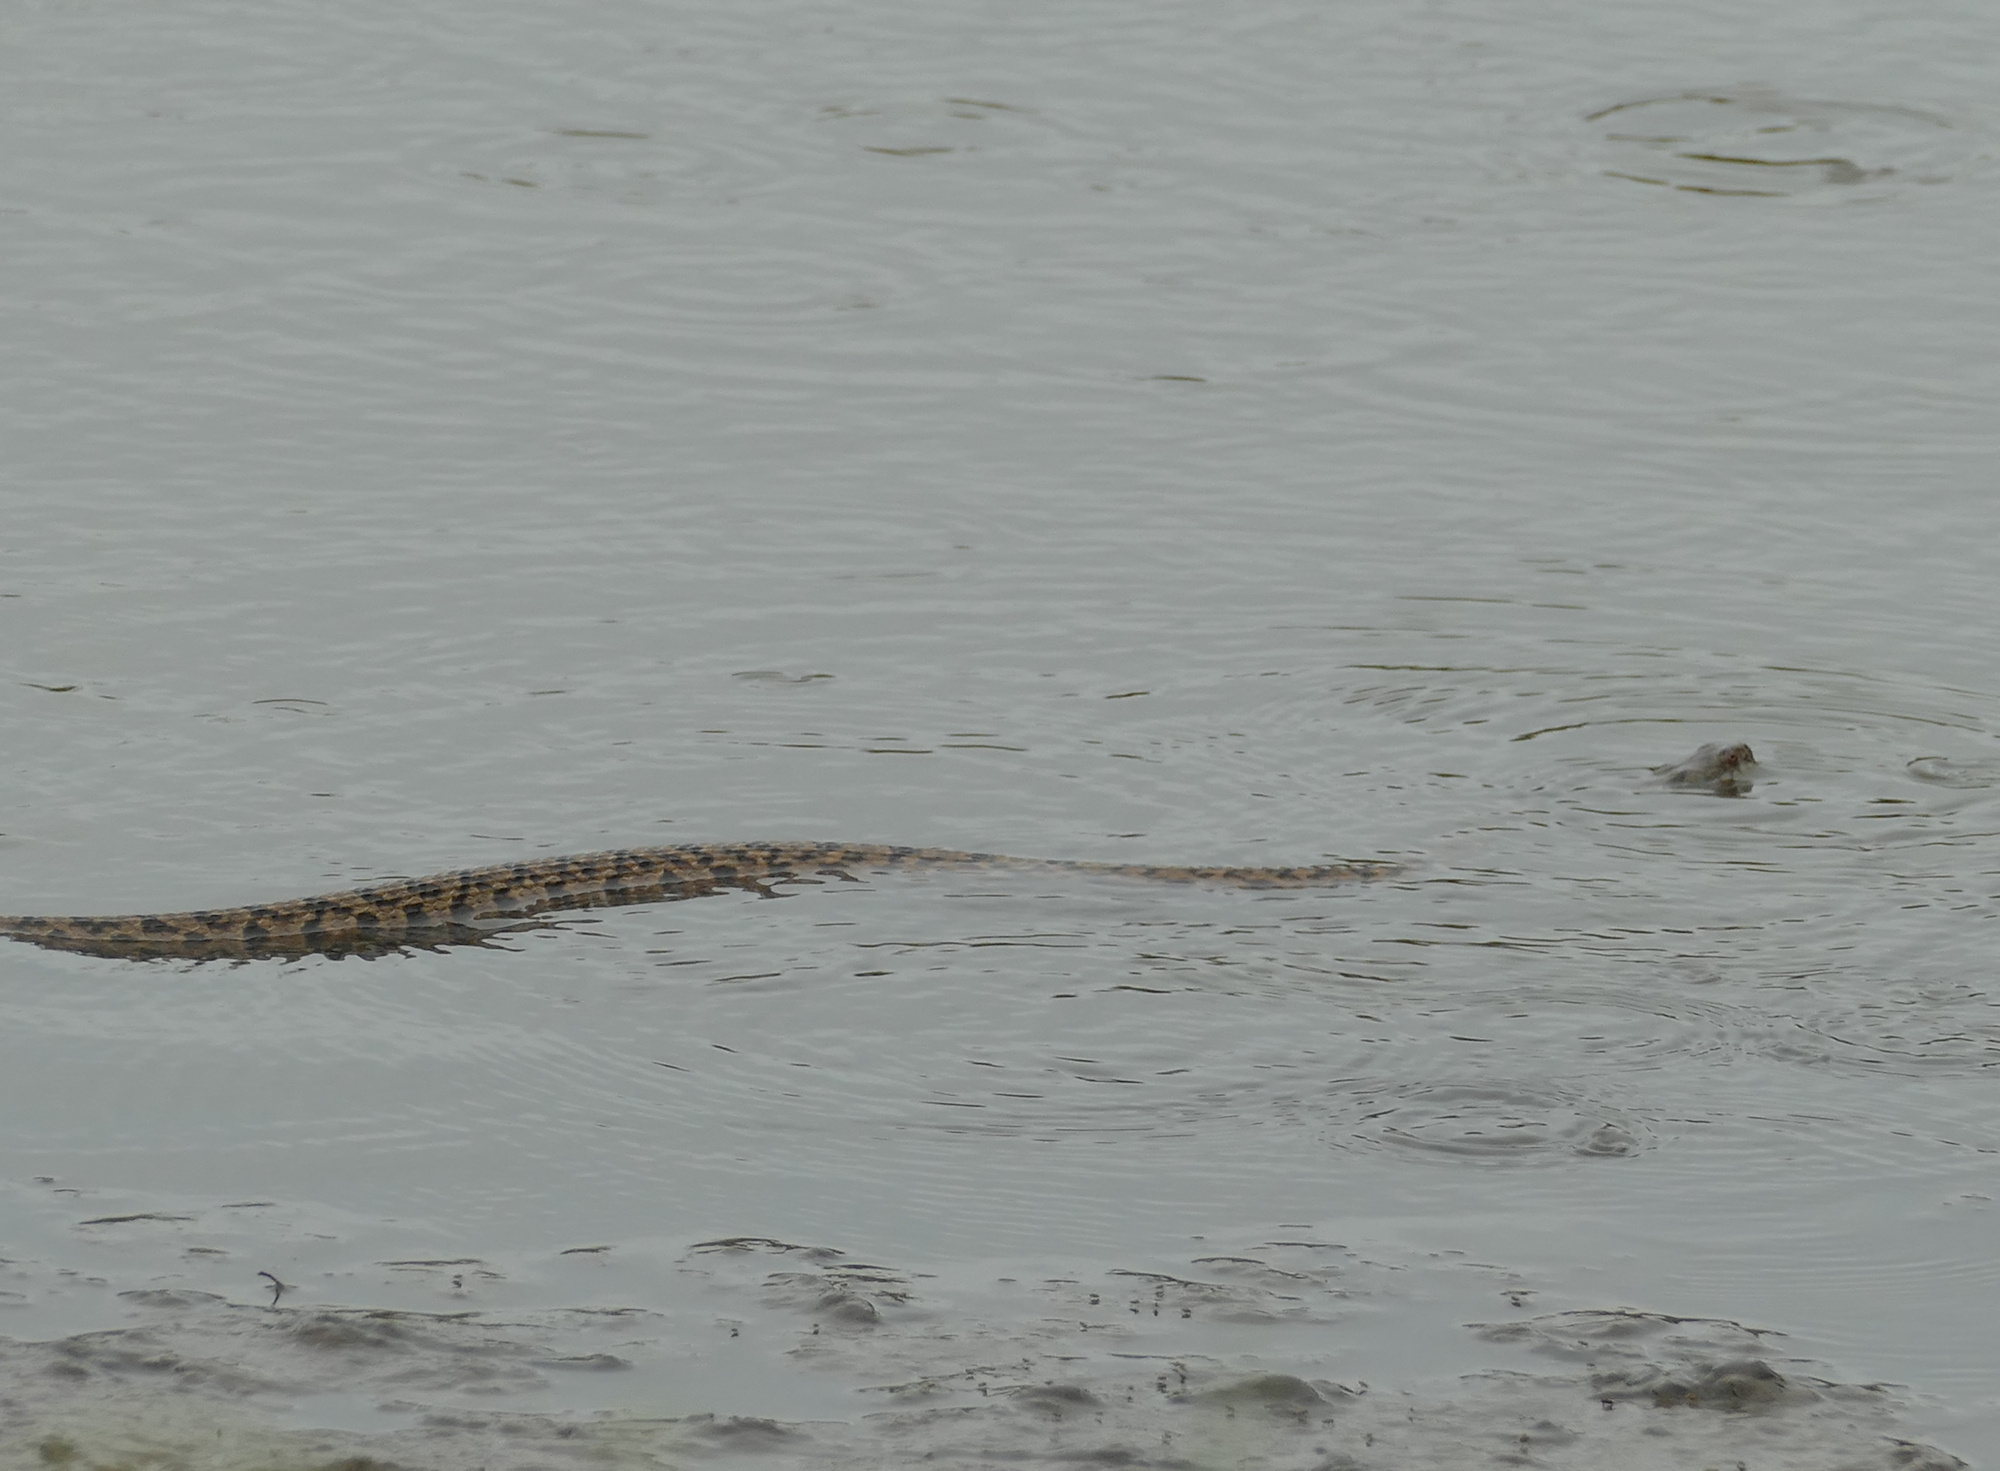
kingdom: Animalia
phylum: Chordata
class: Squamata
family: Colubridae
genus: Nerodia
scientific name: Nerodia rhombifer
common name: Diamondback water snake
